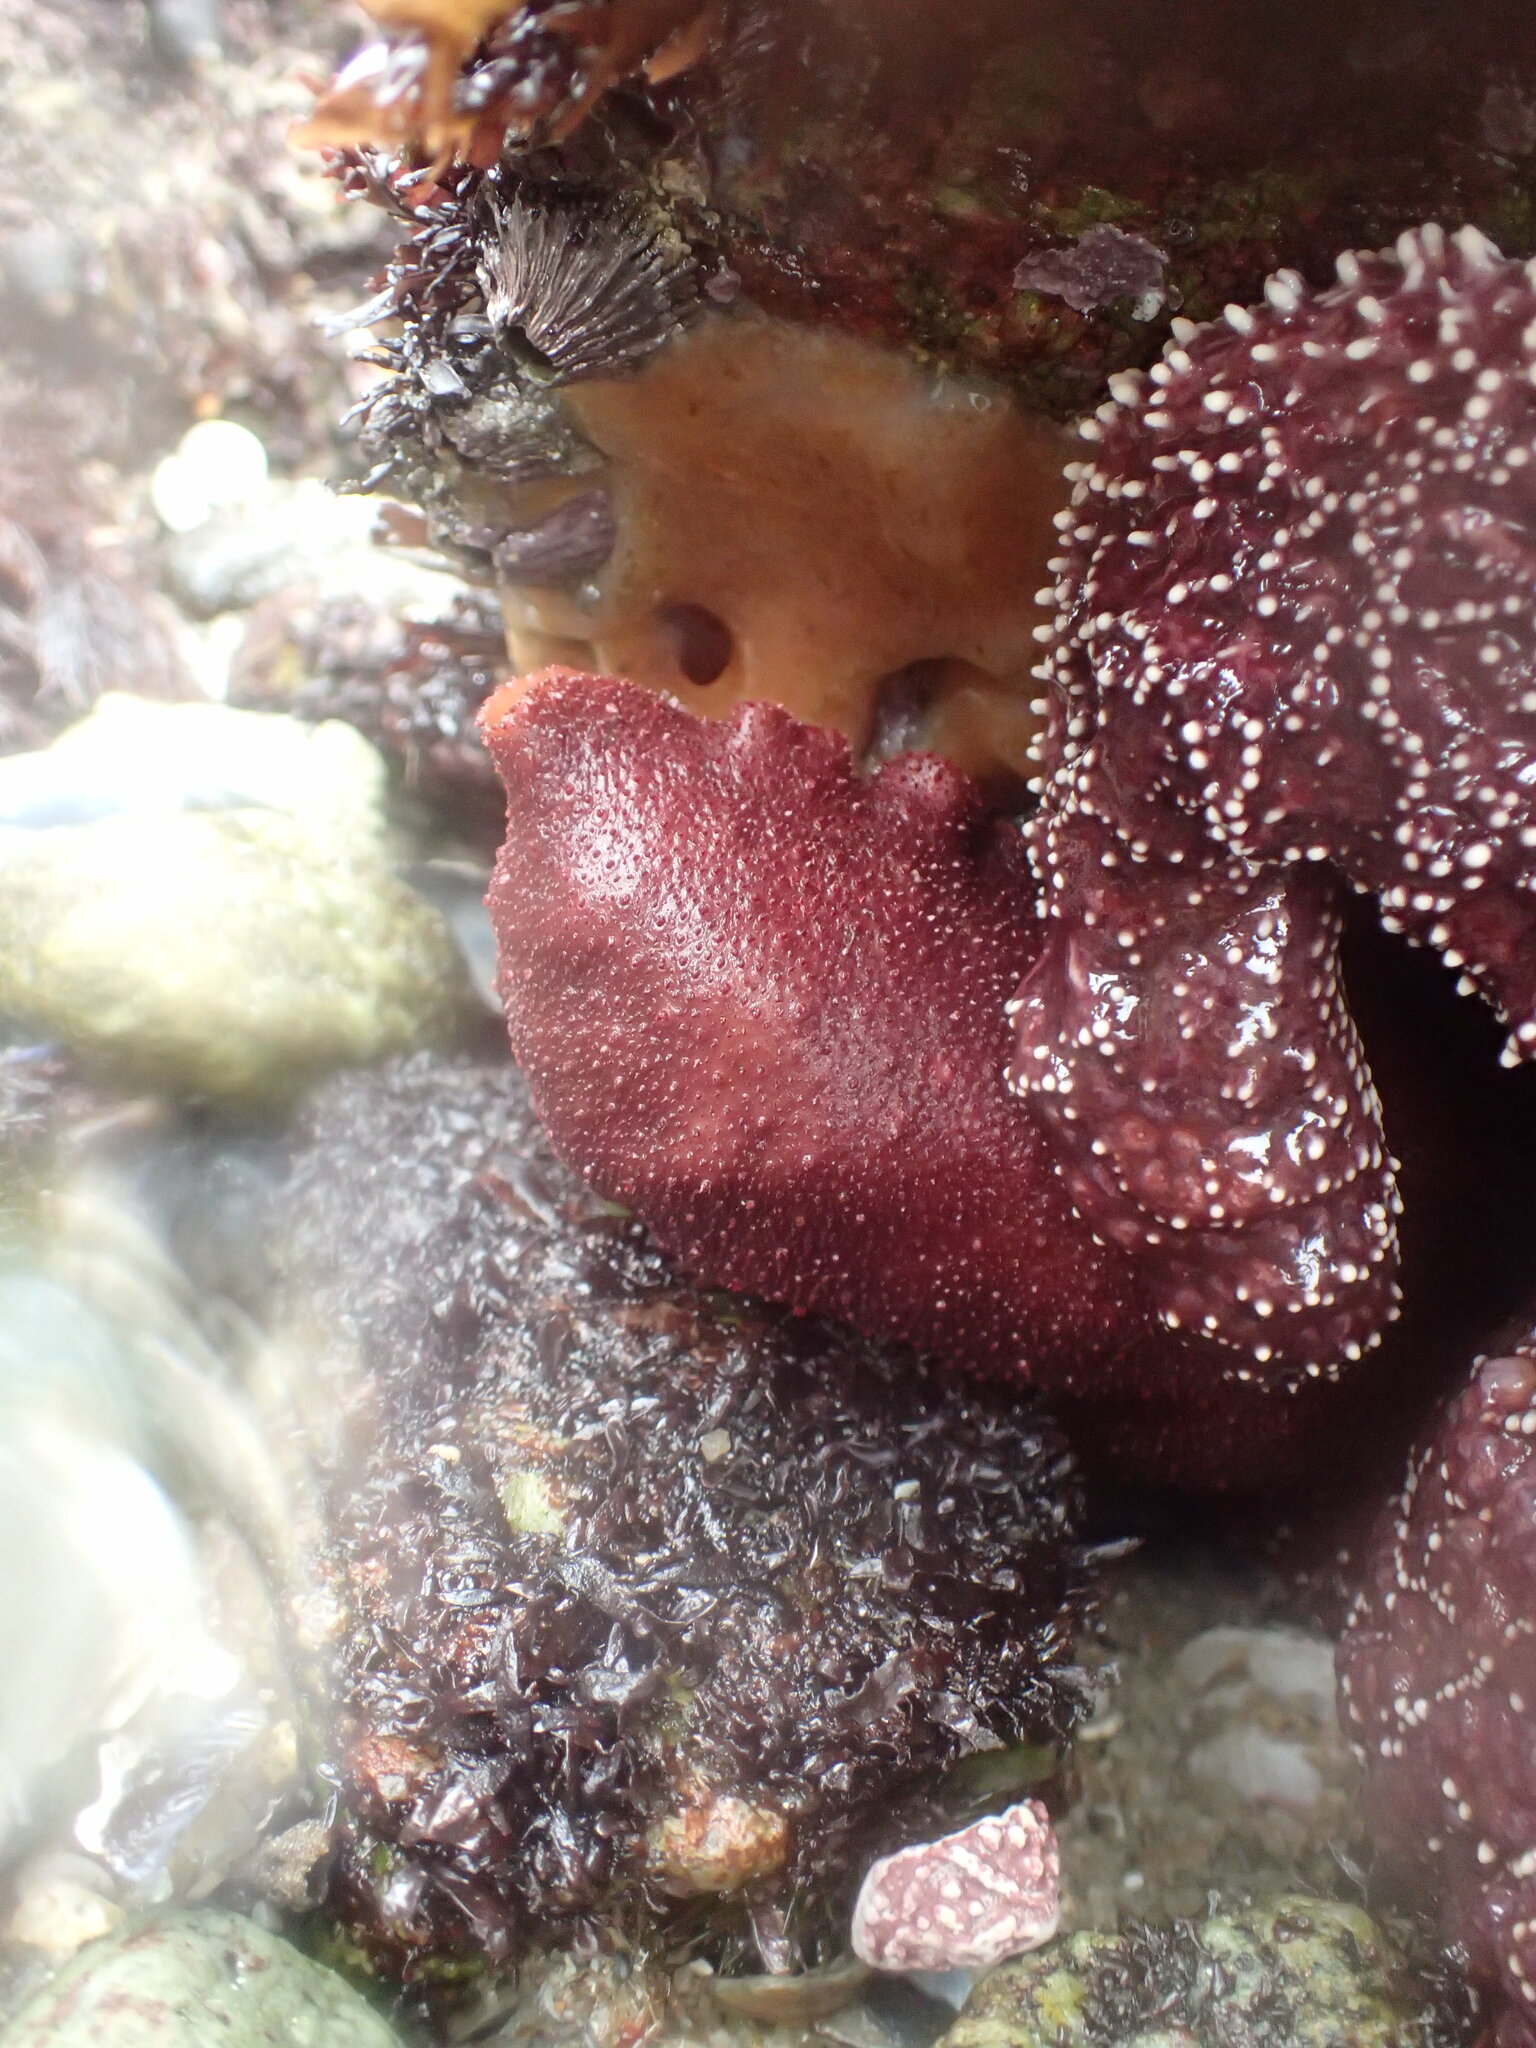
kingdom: Animalia
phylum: Mollusca
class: Polyplacophora
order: Chitonida
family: Acanthochitonidae
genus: Cryptochiton
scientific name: Cryptochiton stelleri
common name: Giant pacific chiton
